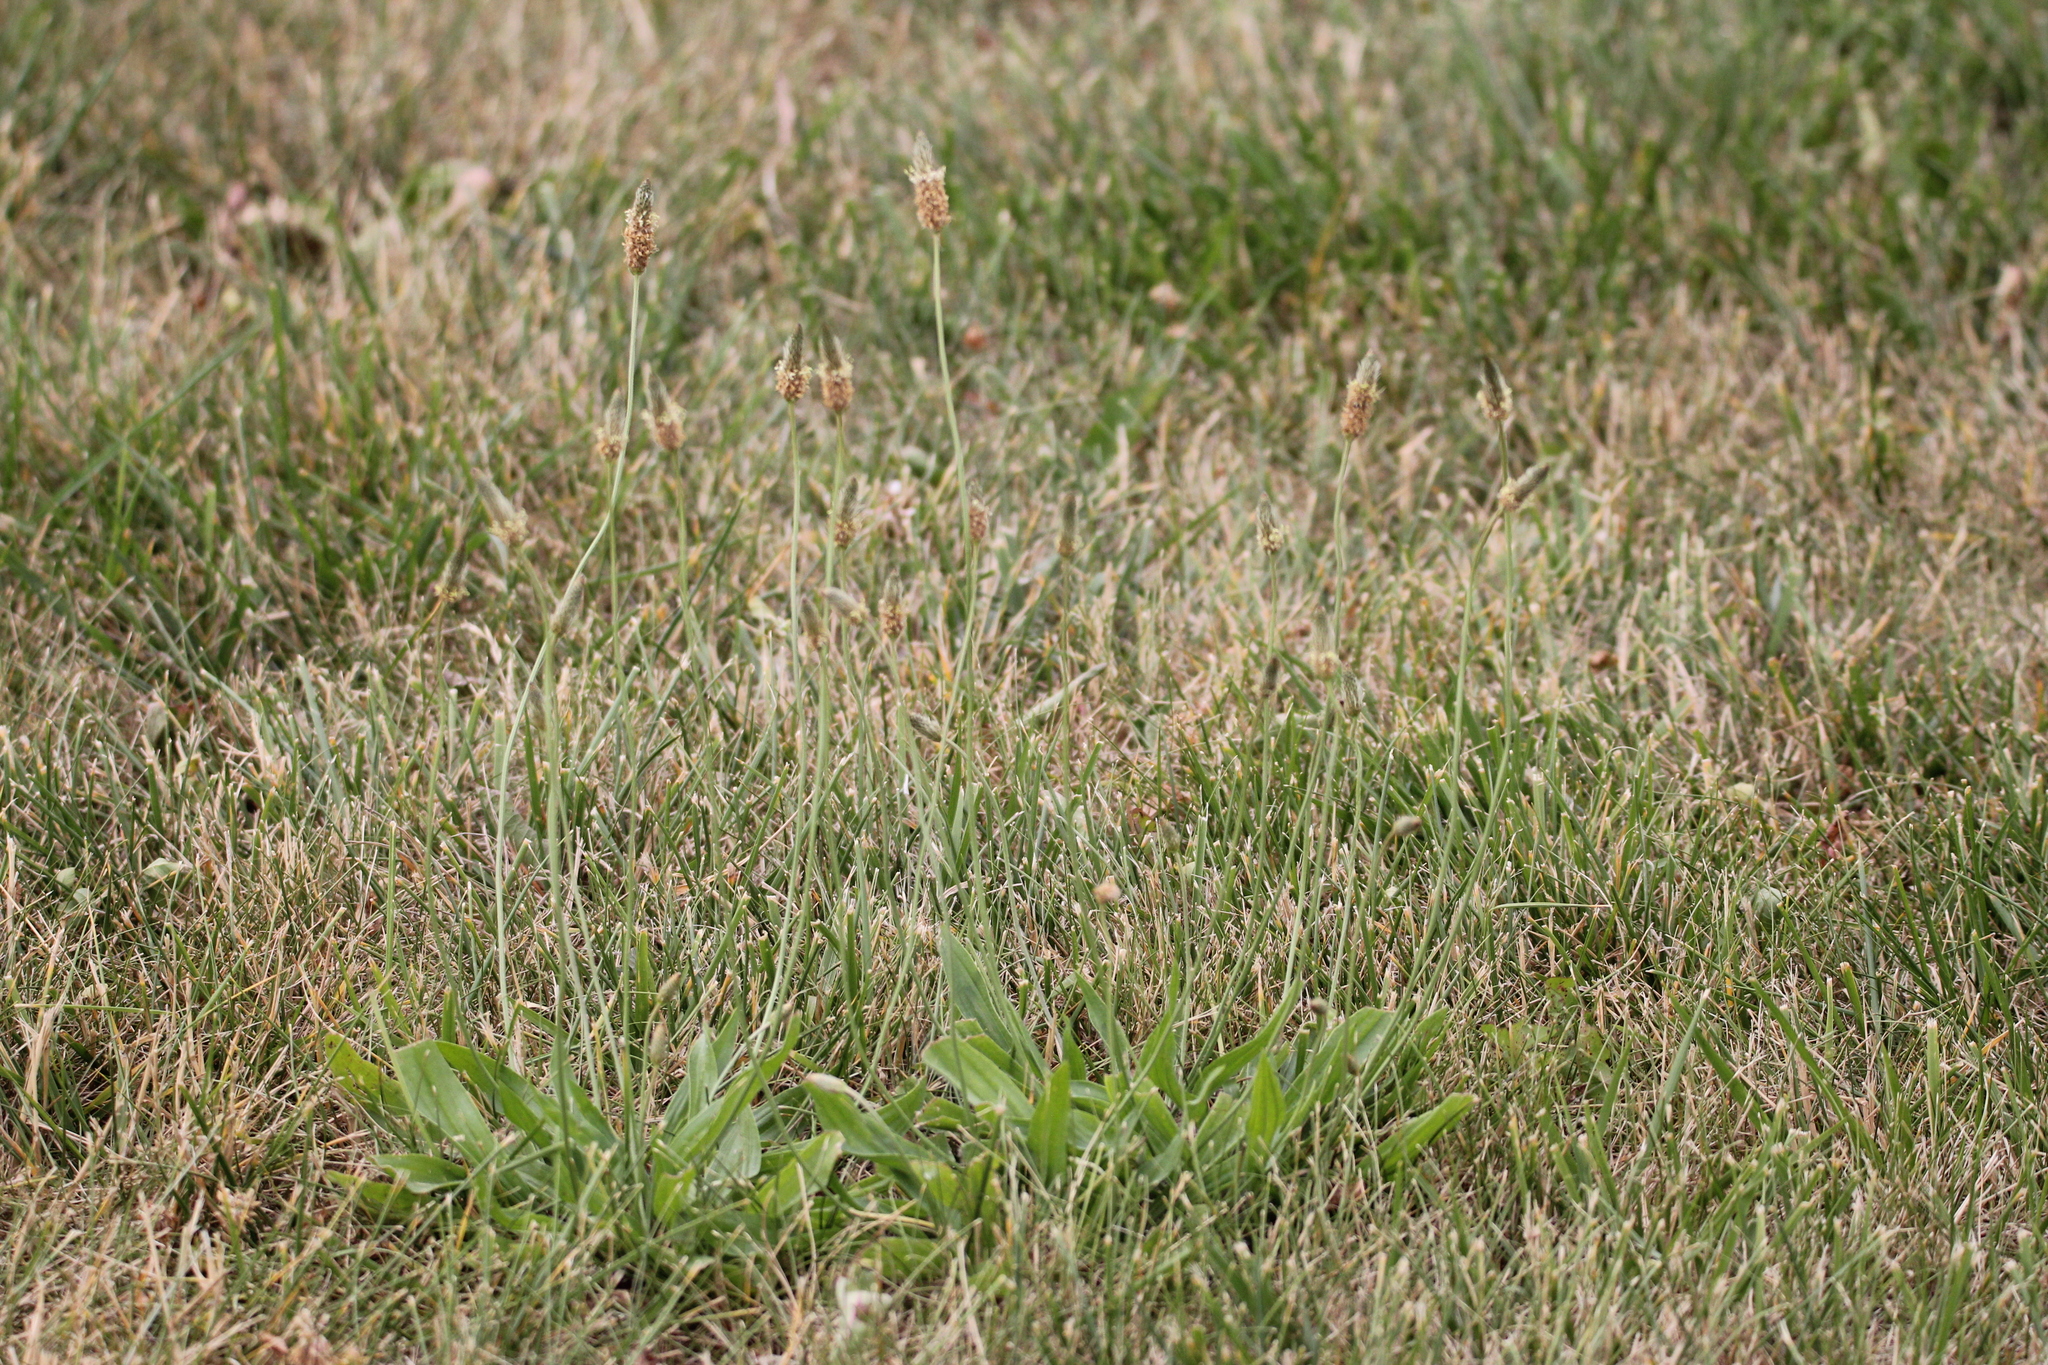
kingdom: Plantae
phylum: Tracheophyta
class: Magnoliopsida
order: Lamiales
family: Plantaginaceae
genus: Plantago
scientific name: Plantago lanceolata
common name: Ribwort plantain
